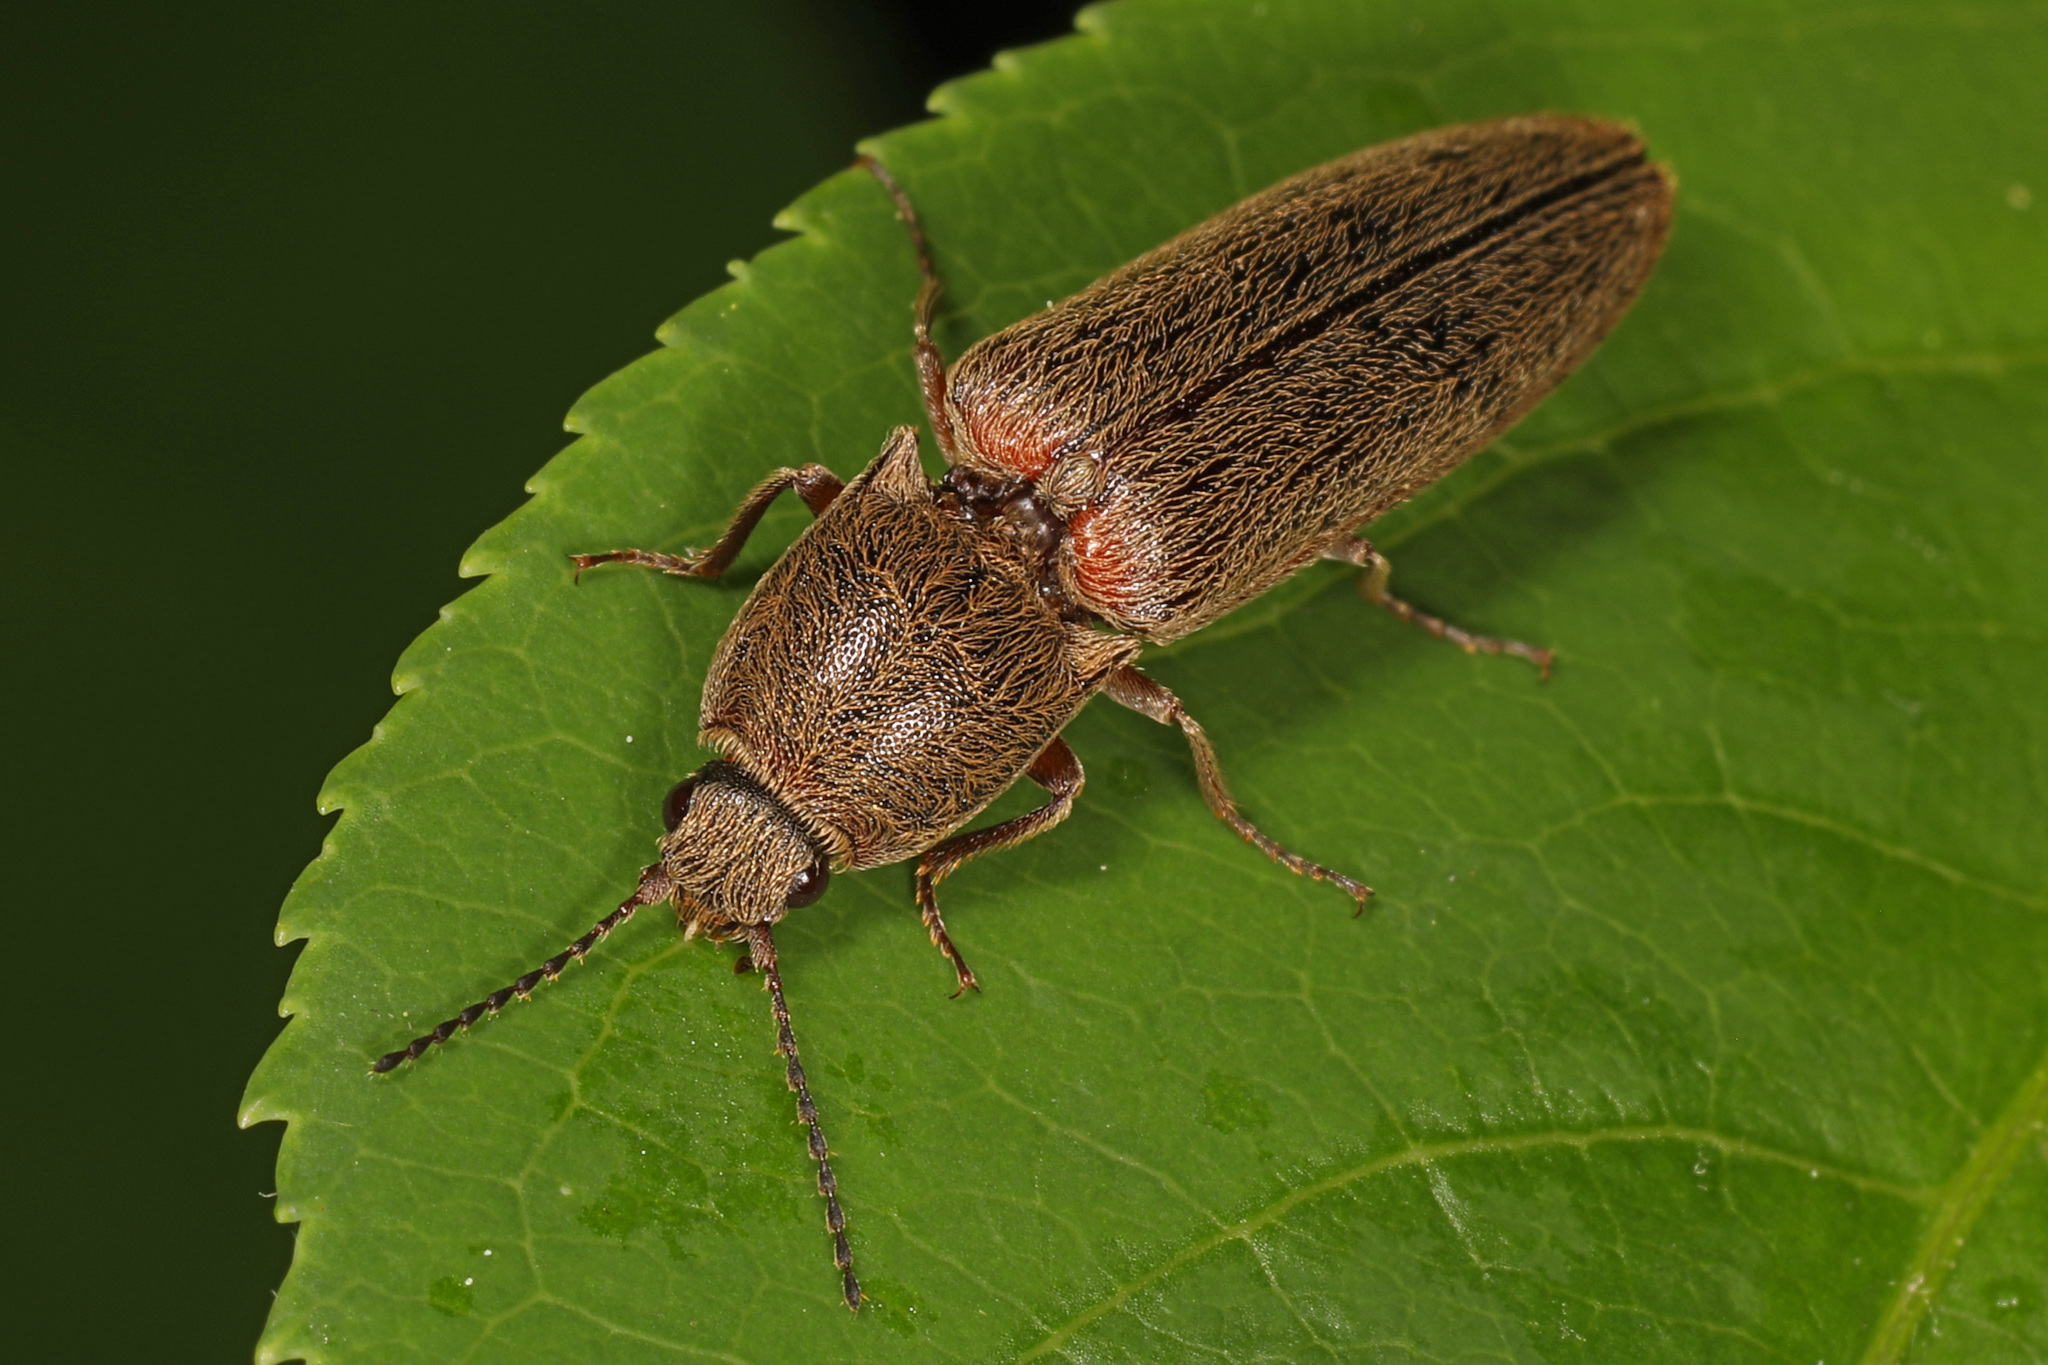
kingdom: Animalia
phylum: Arthropoda
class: Insecta
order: Coleoptera
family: Elateridae
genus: Gambrinus
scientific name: Gambrinus griseus
